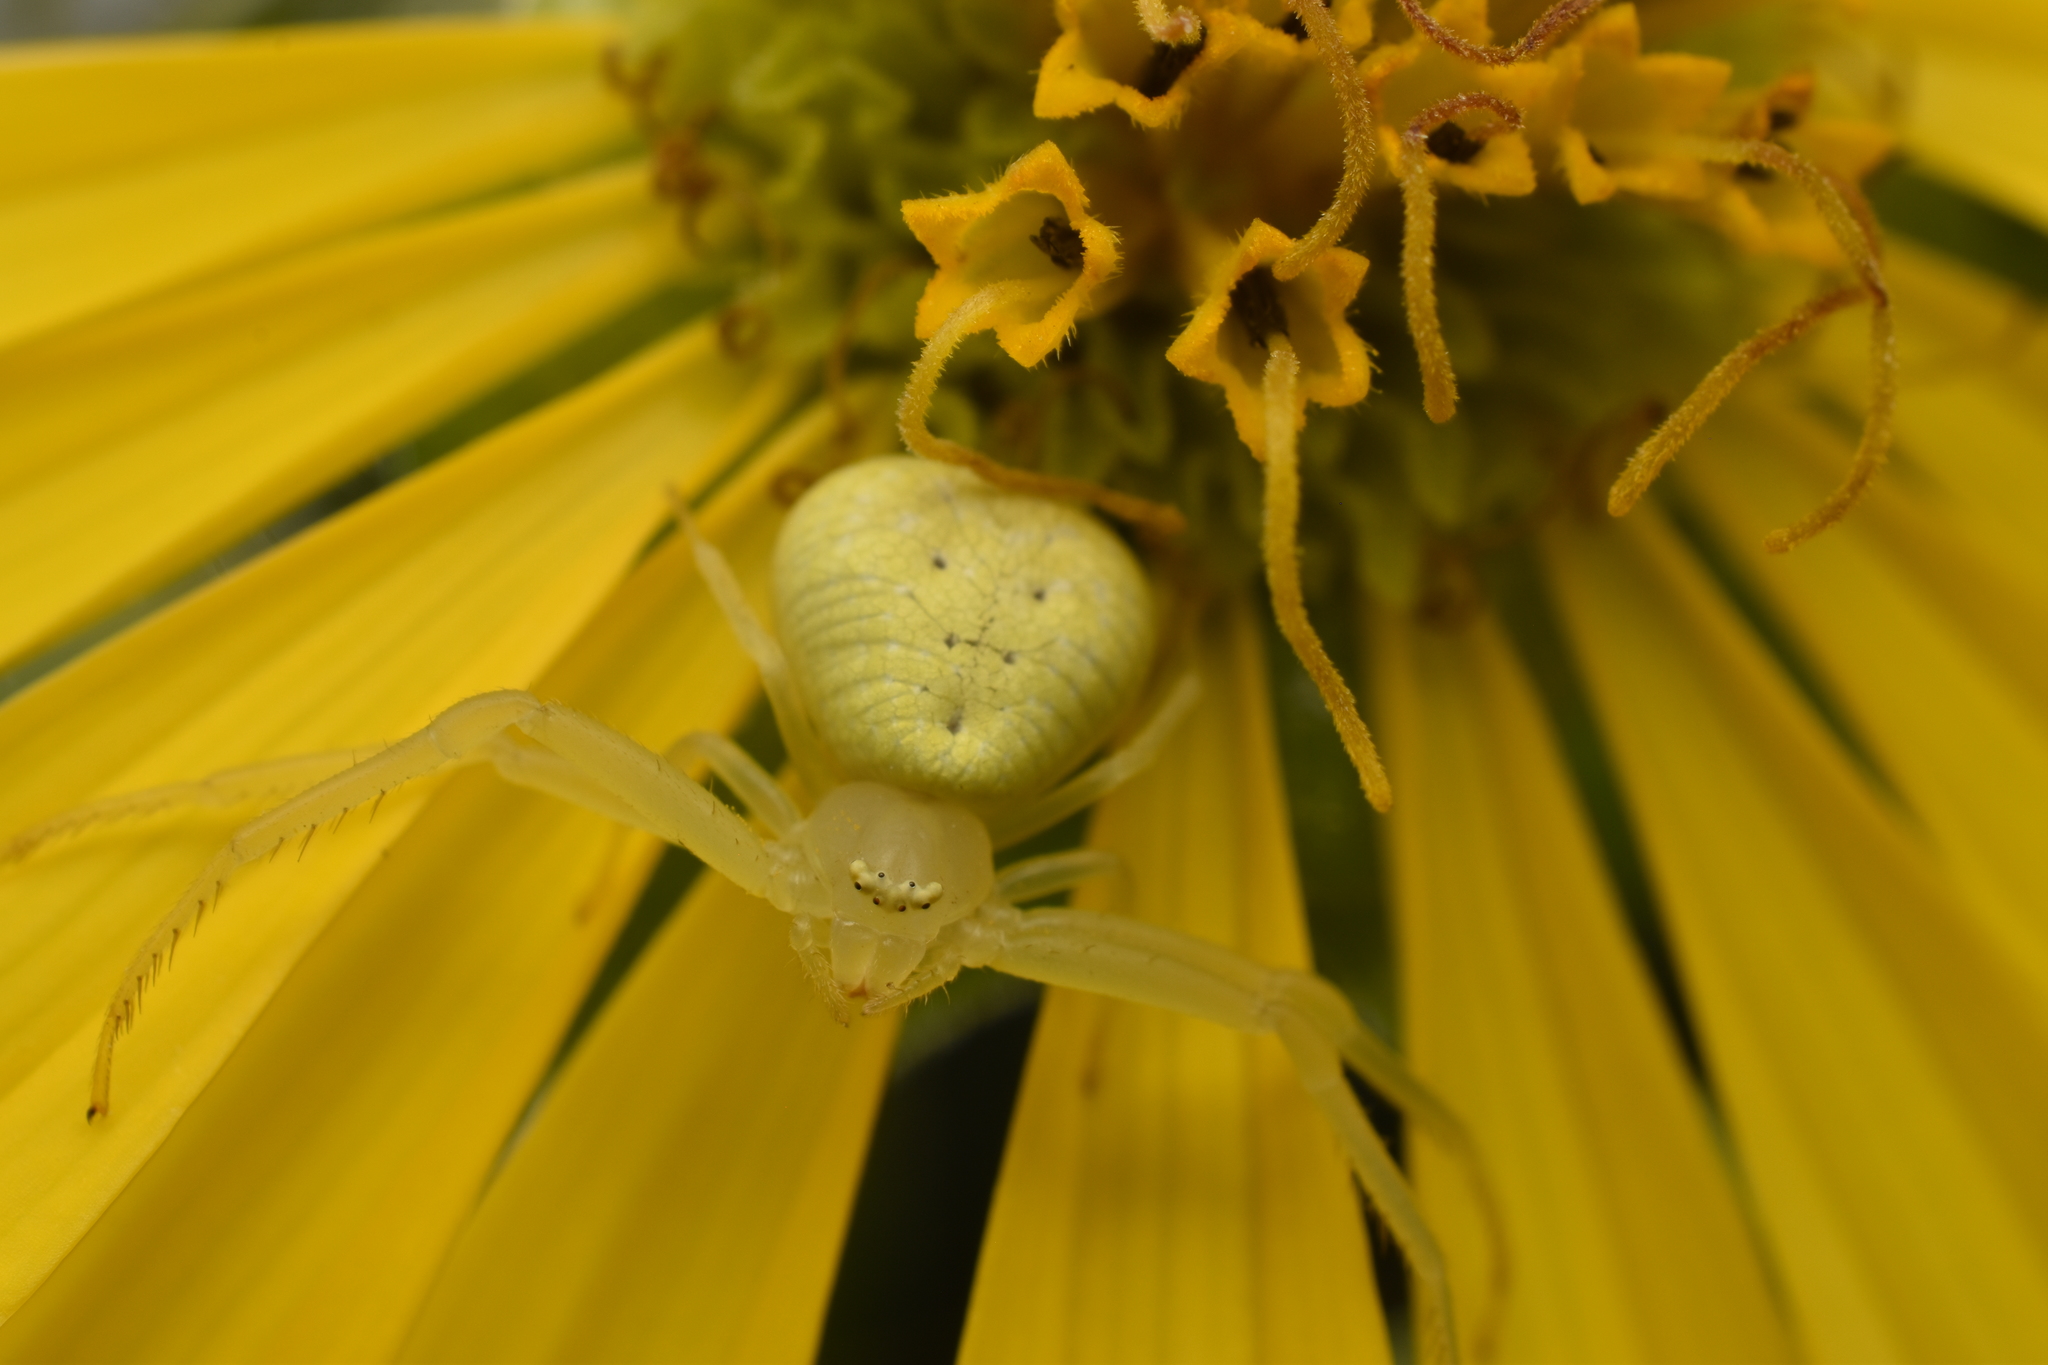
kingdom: Animalia
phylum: Arthropoda
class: Arachnida
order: Araneae
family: Thomisidae
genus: Misumessus
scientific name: Misumessus oblongus
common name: American green crab spider
